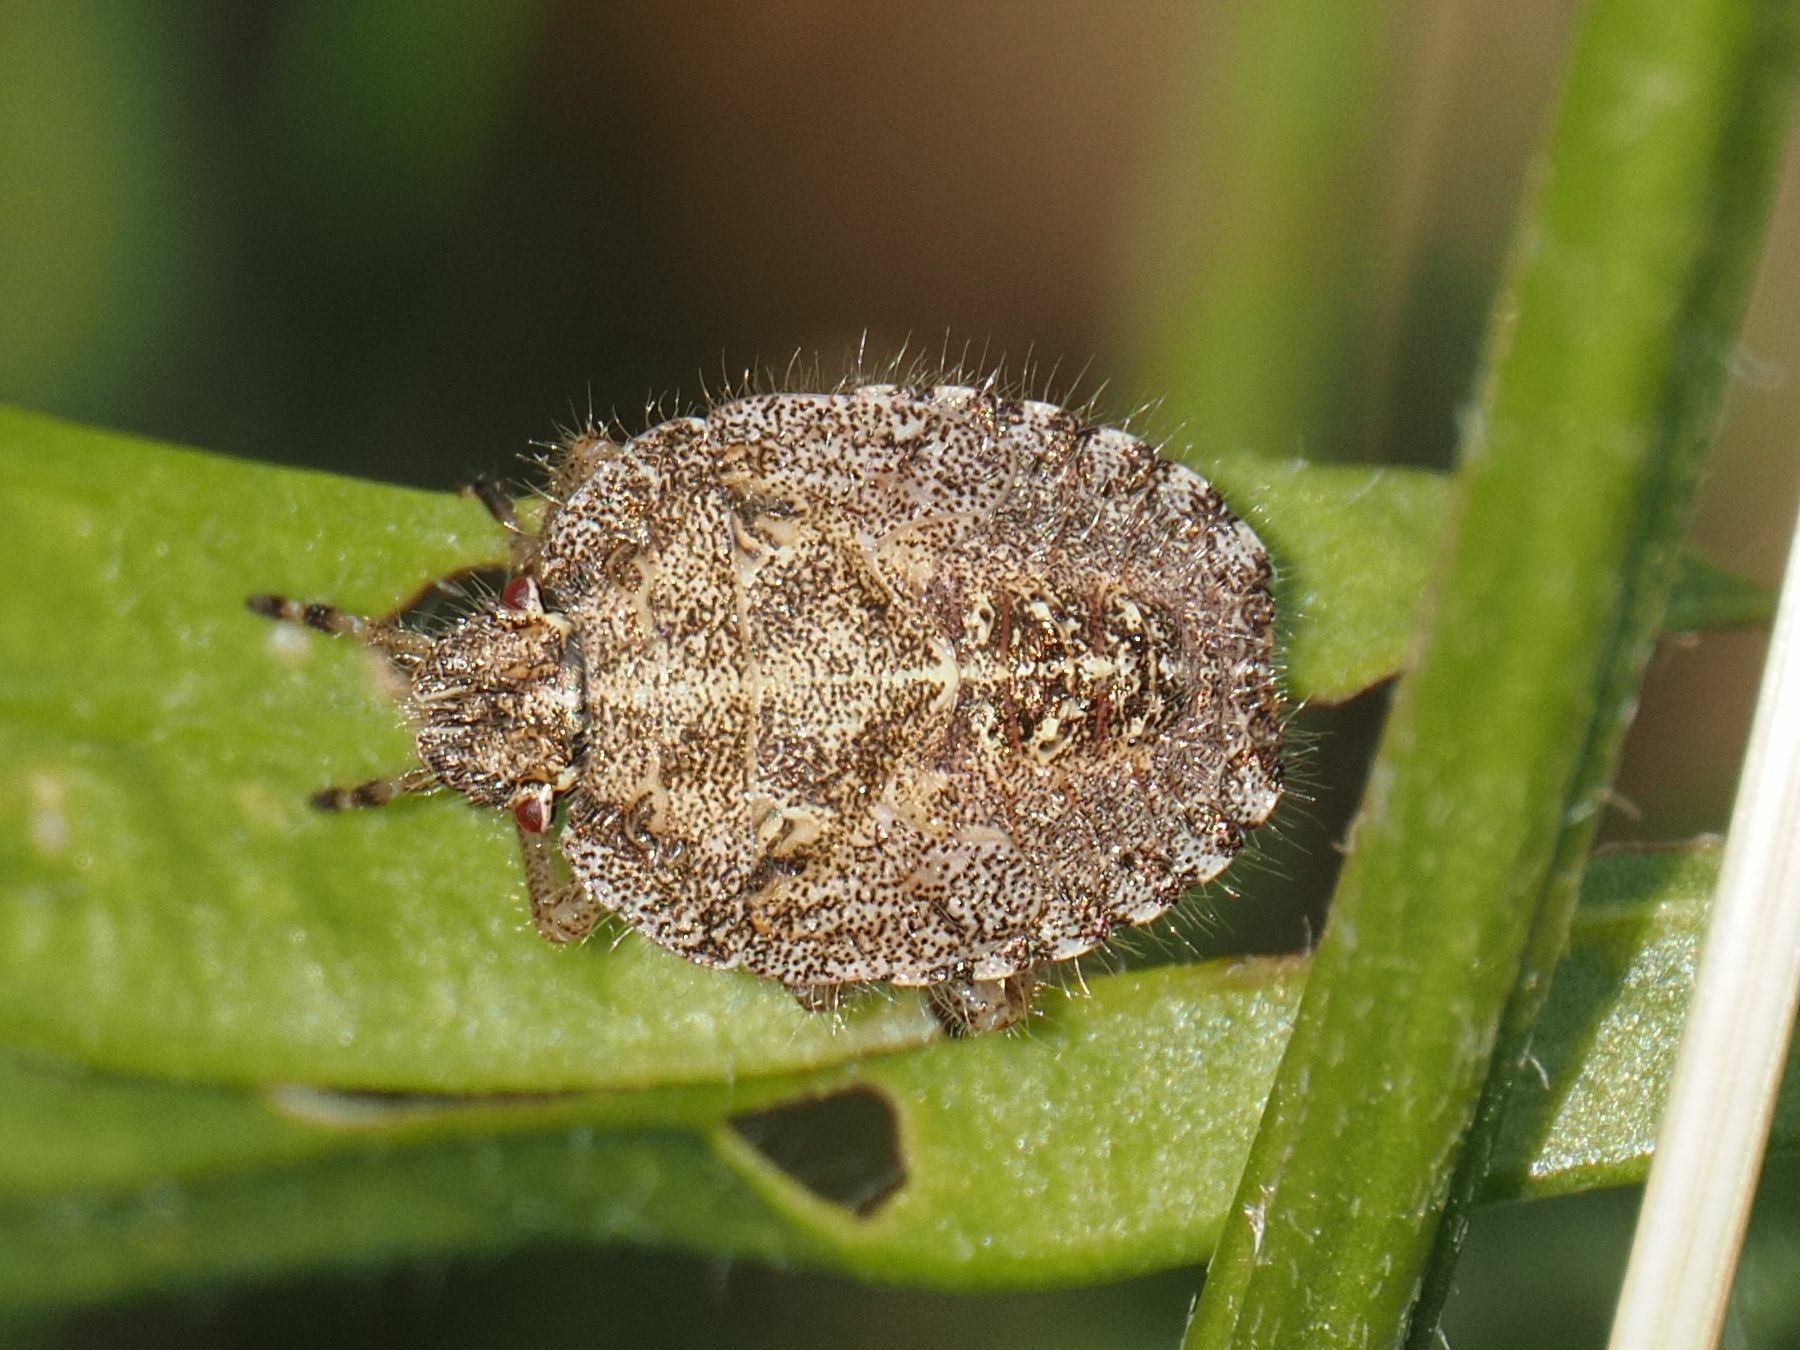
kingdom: Animalia
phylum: Arthropoda
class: Insecta
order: Hemiptera
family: Pentatomidae
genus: Dolycoris
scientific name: Dolycoris baccarum
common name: Sloe bug
